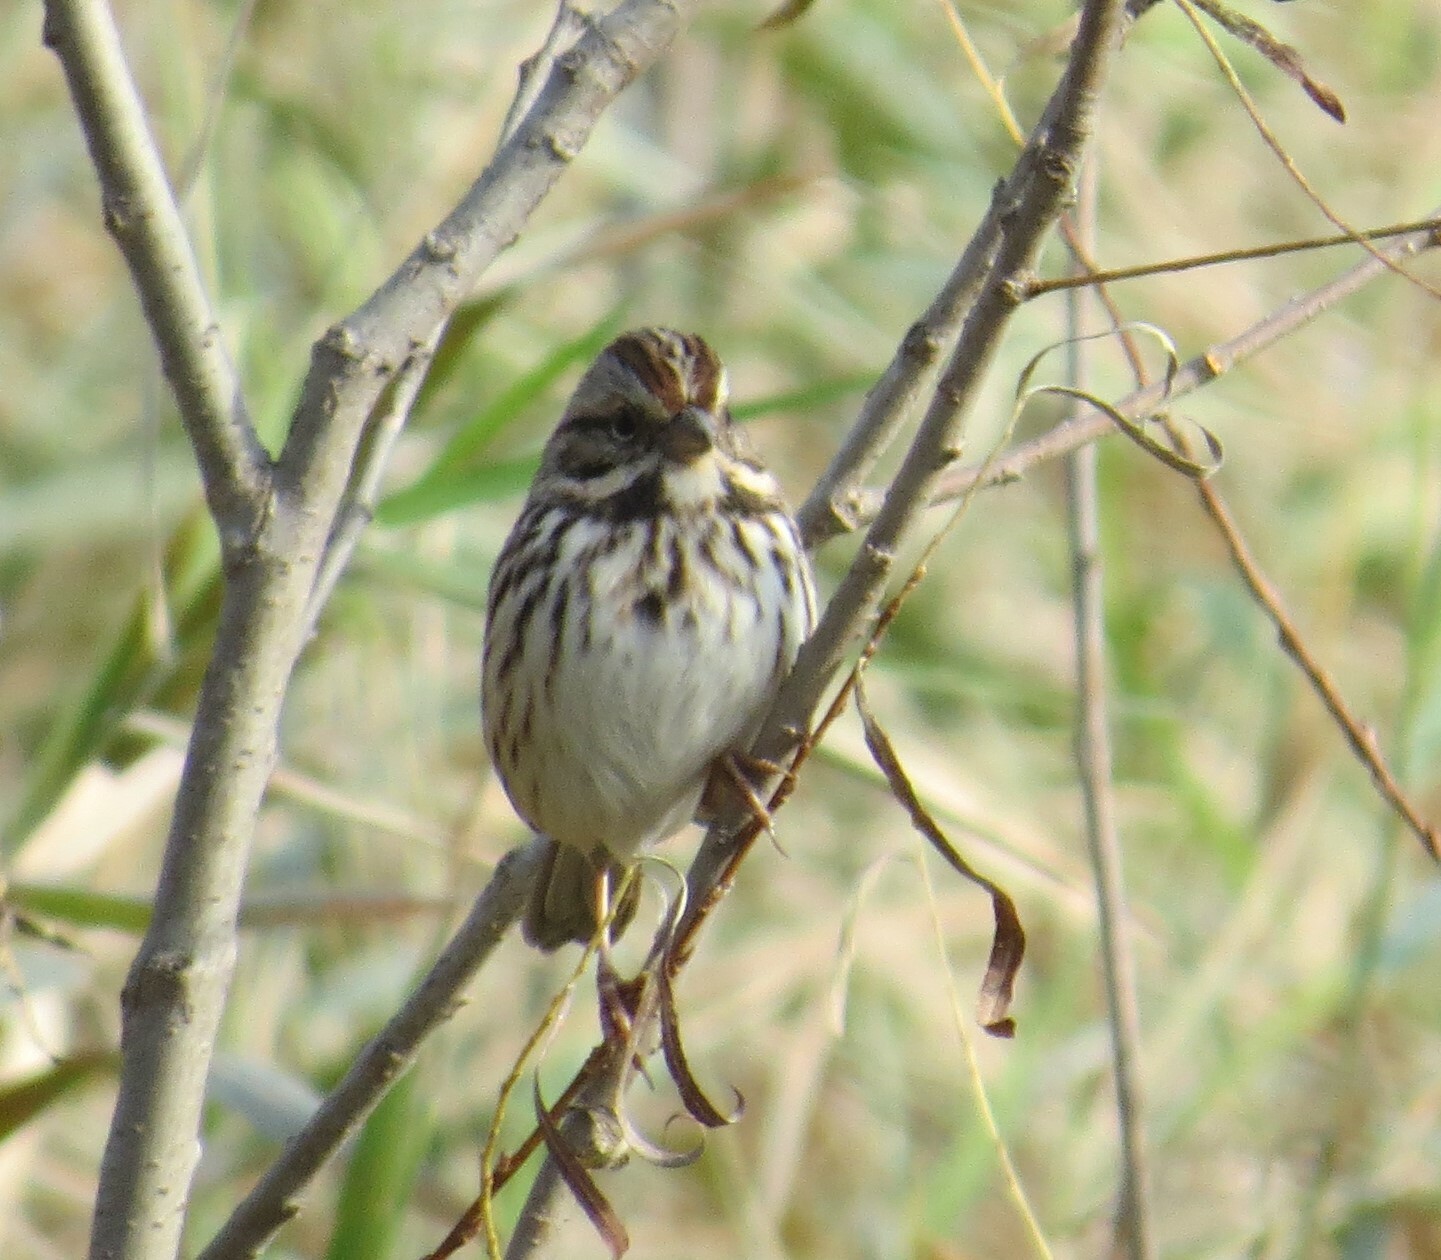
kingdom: Animalia
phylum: Chordata
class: Aves
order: Passeriformes
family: Passerellidae
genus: Melospiza
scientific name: Melospiza melodia
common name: Song sparrow
